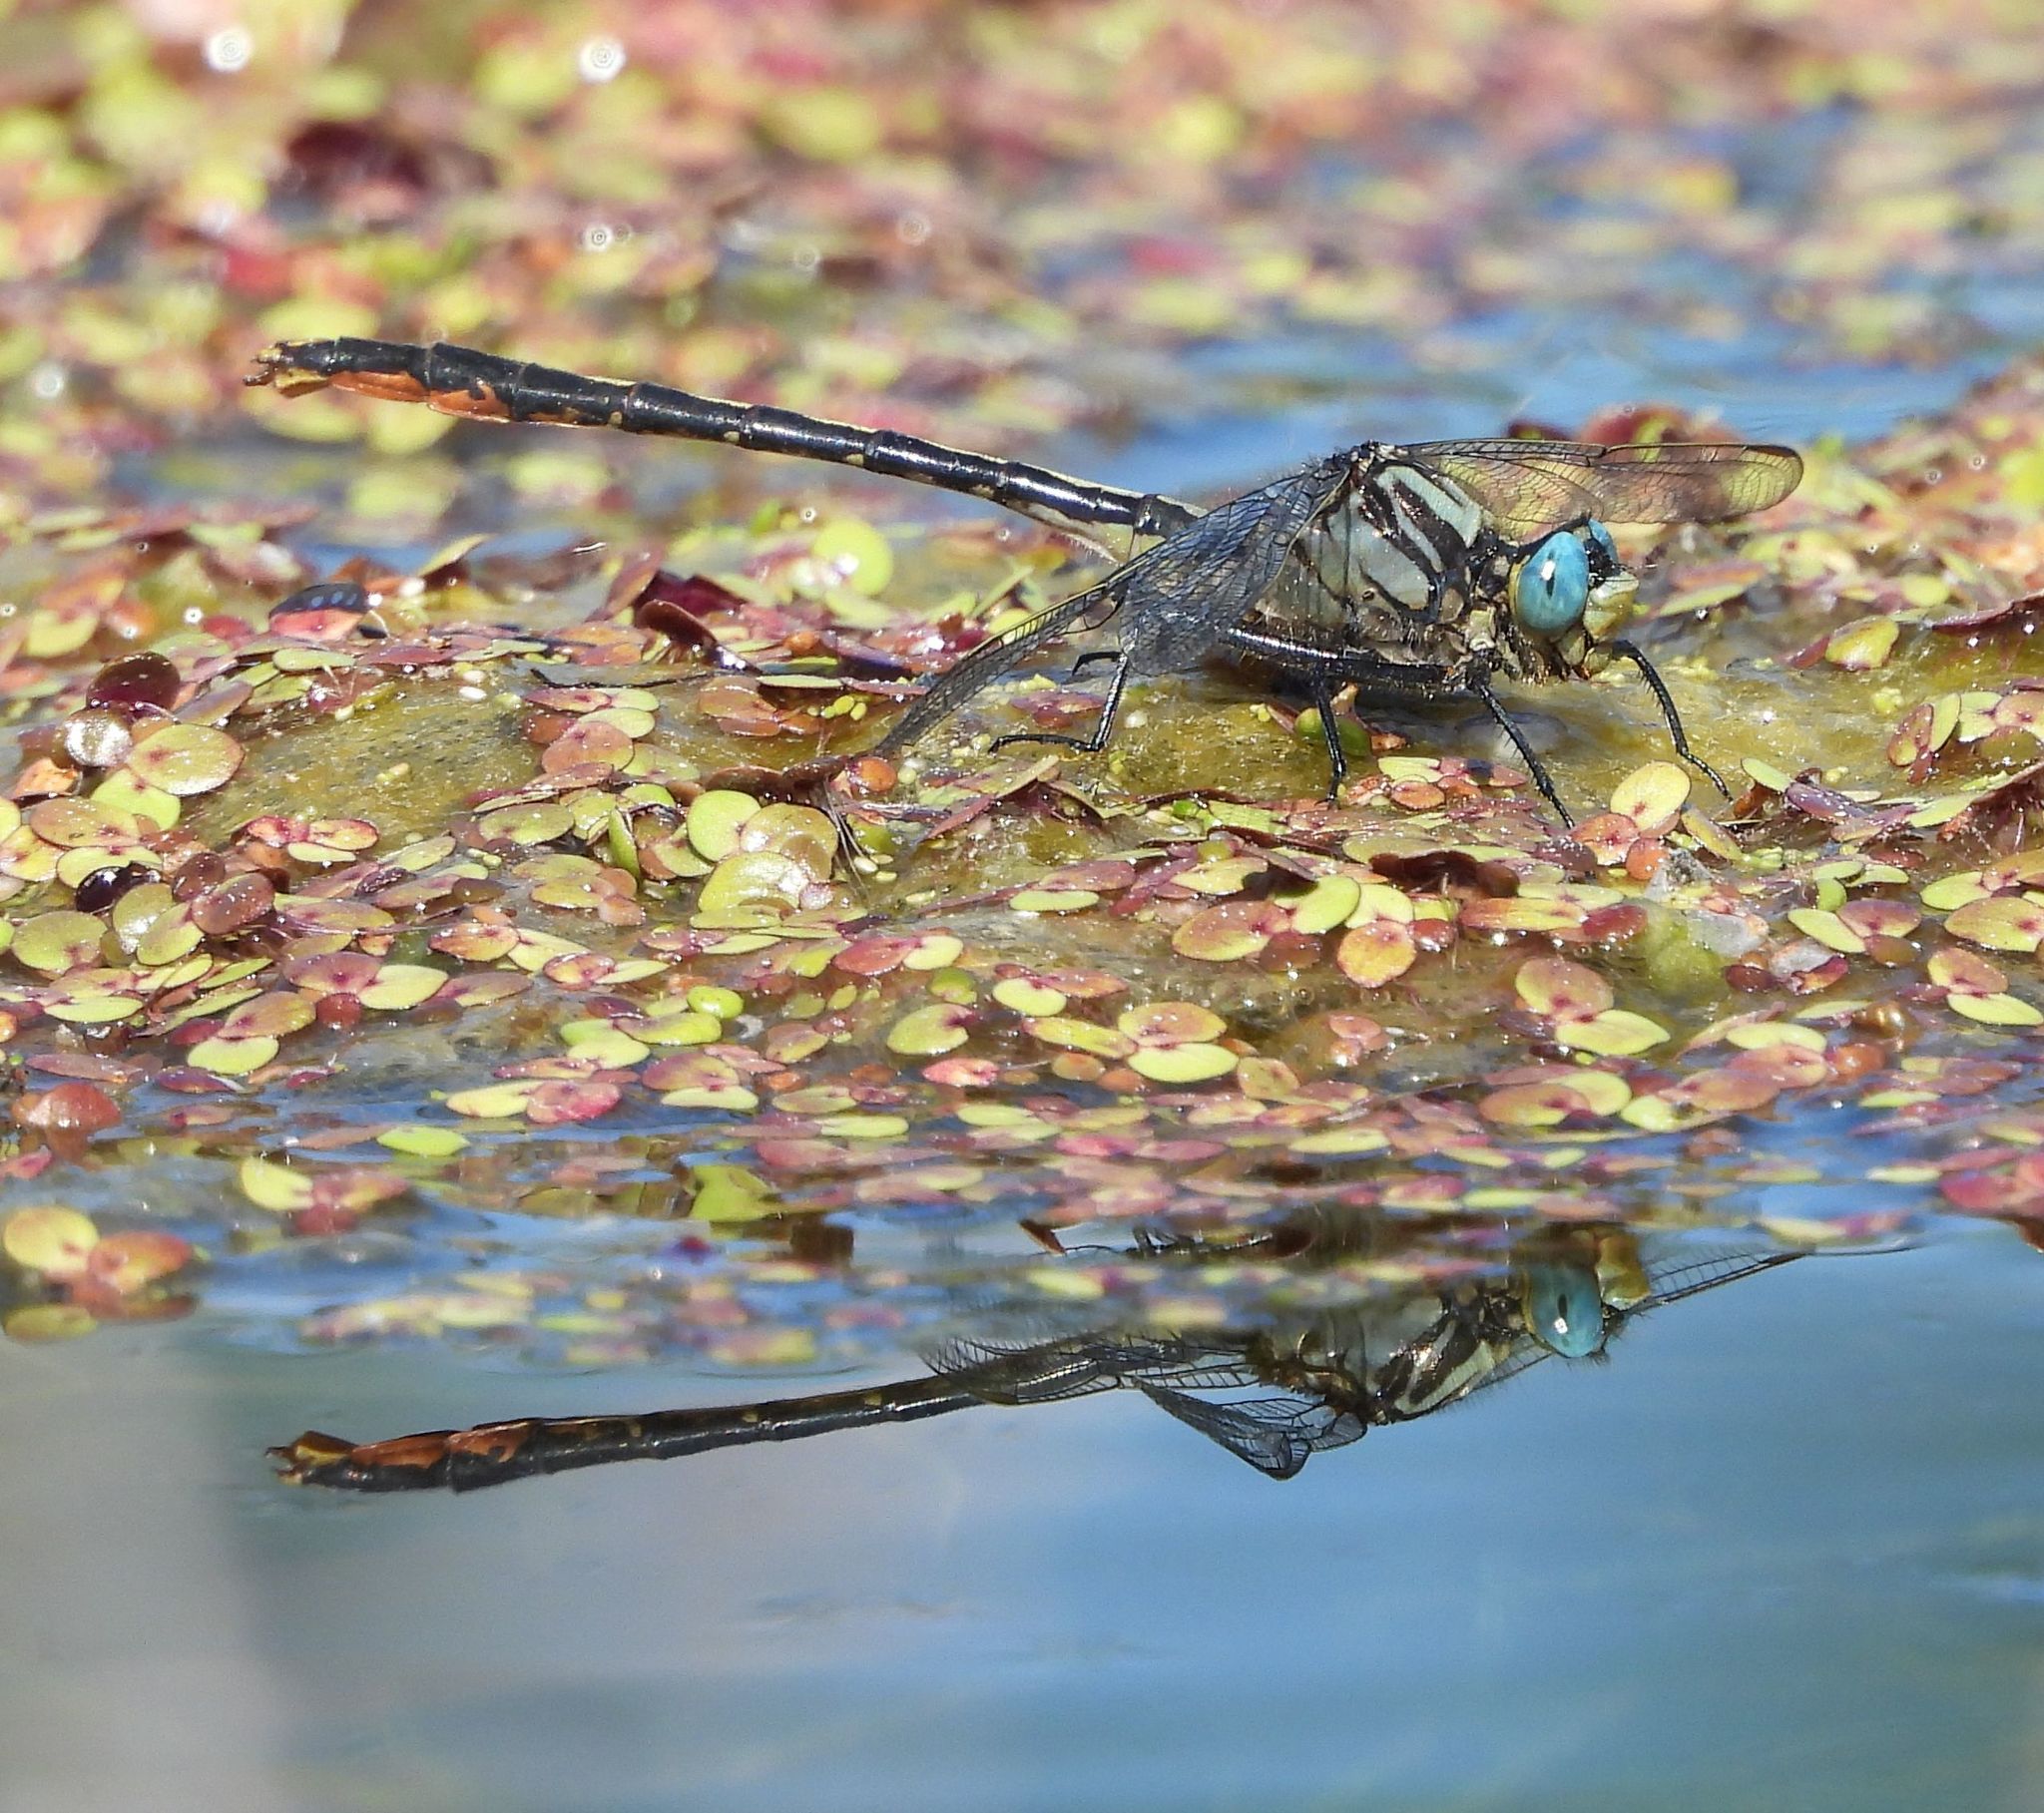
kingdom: Animalia
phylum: Arthropoda
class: Insecta
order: Odonata
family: Gomphidae
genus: Arigomphus
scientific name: Arigomphus furcifer
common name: Lilypad clubtail
